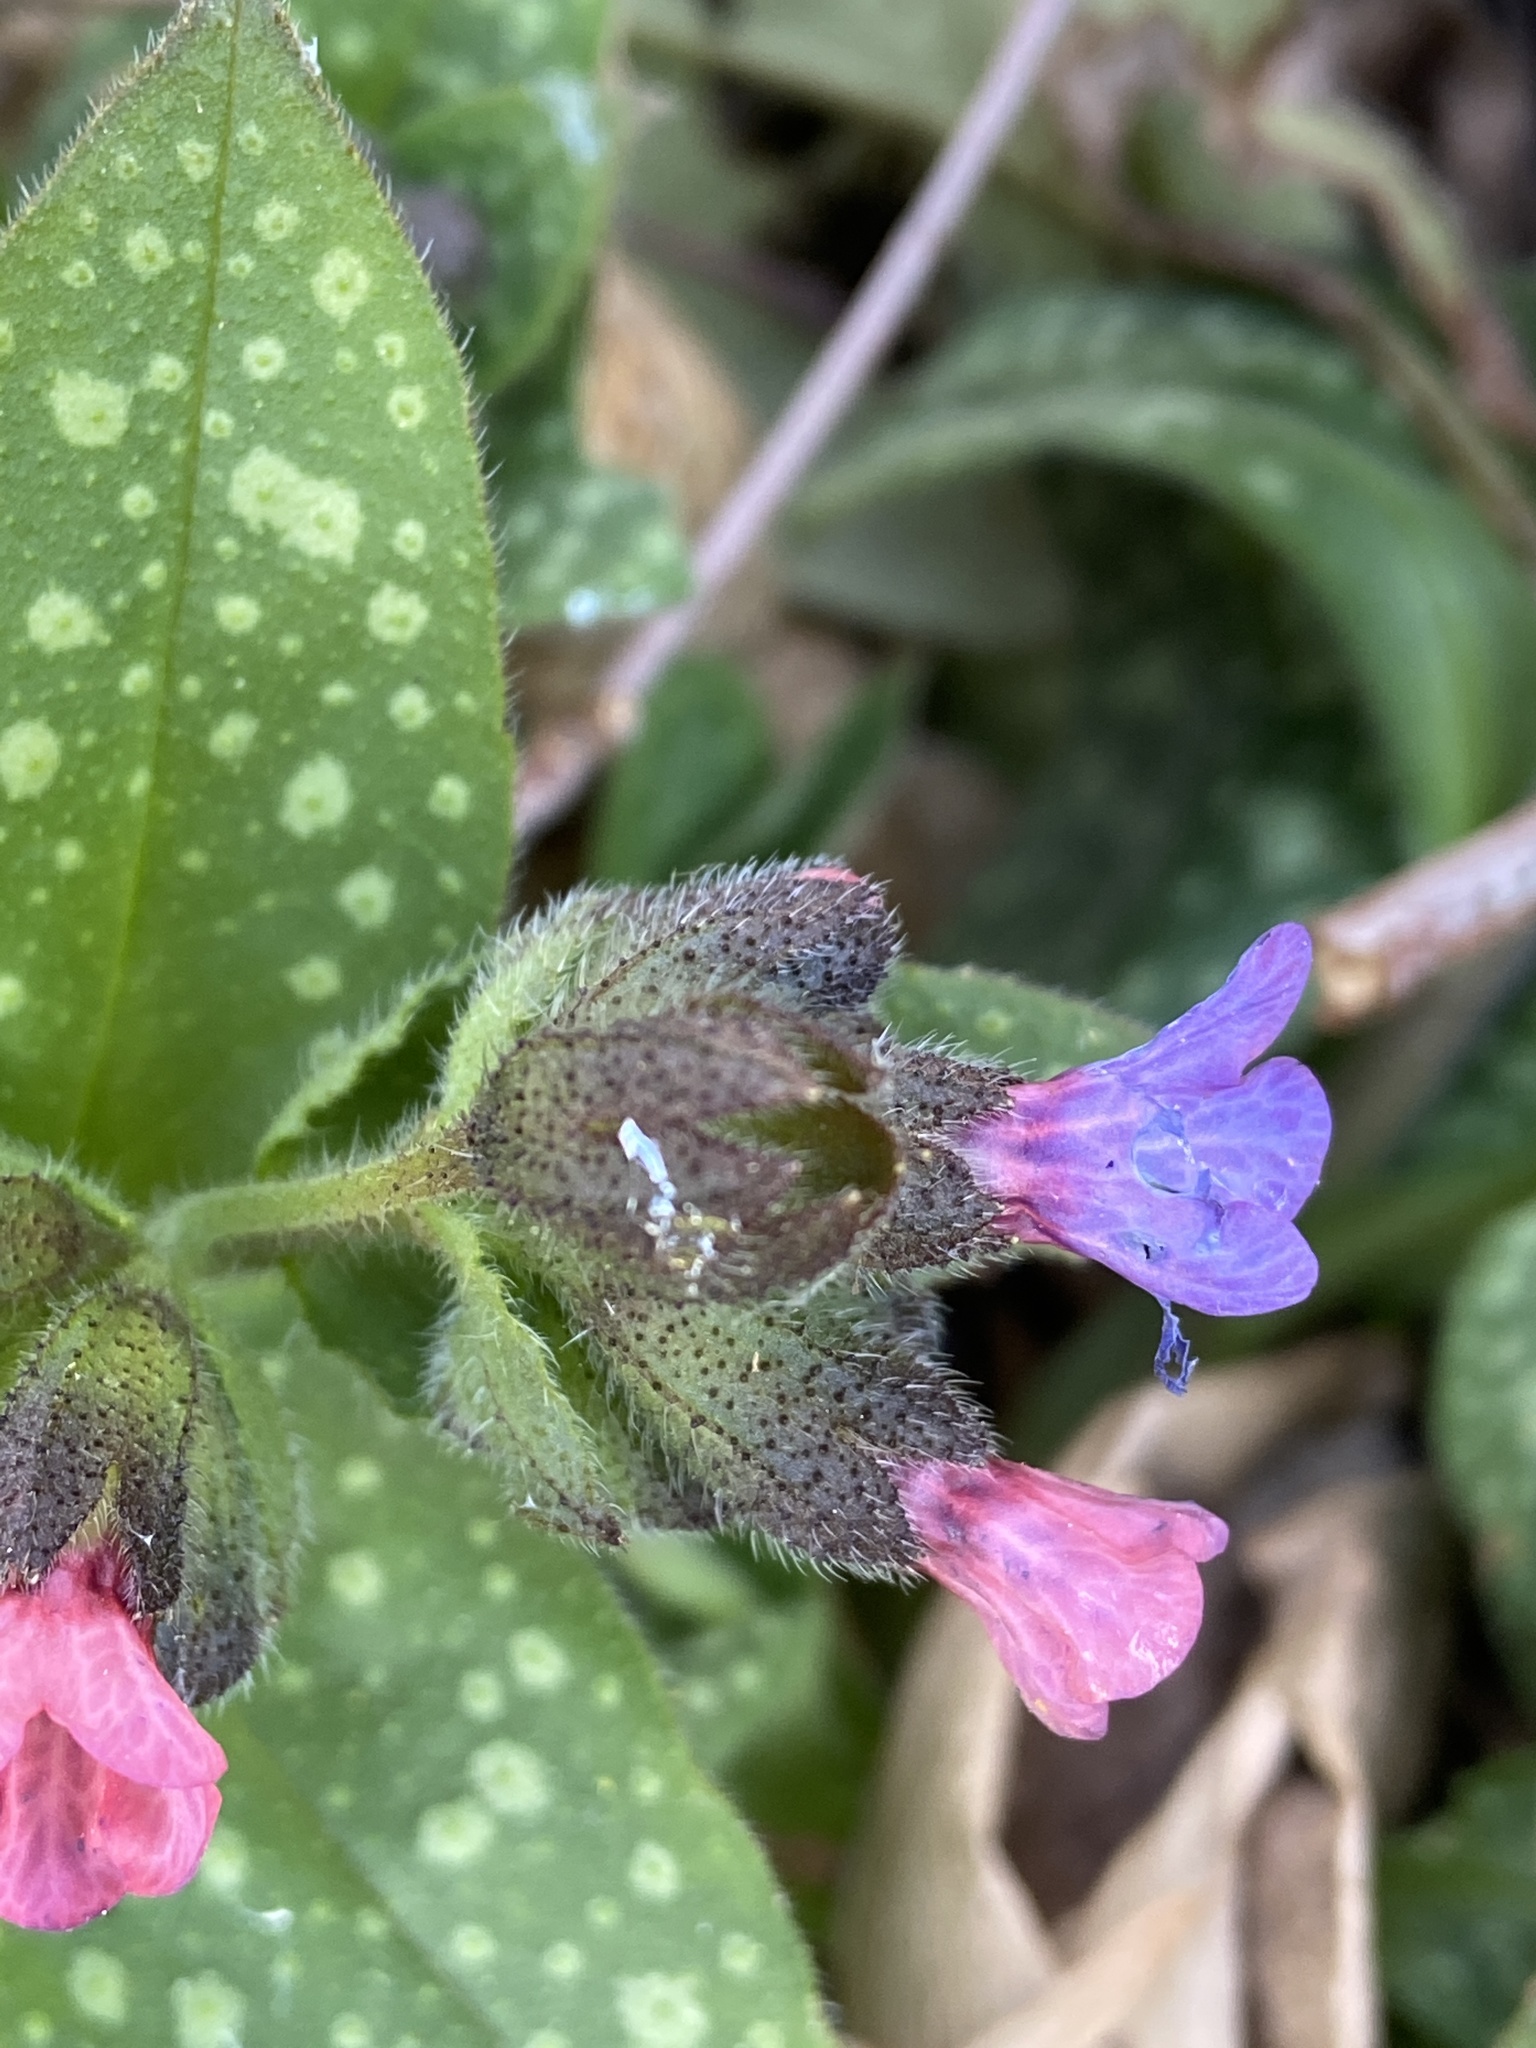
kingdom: Plantae
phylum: Tracheophyta
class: Magnoliopsida
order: Boraginales
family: Boraginaceae
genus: Pulmonaria
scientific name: Pulmonaria officinalis
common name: Lungwort
